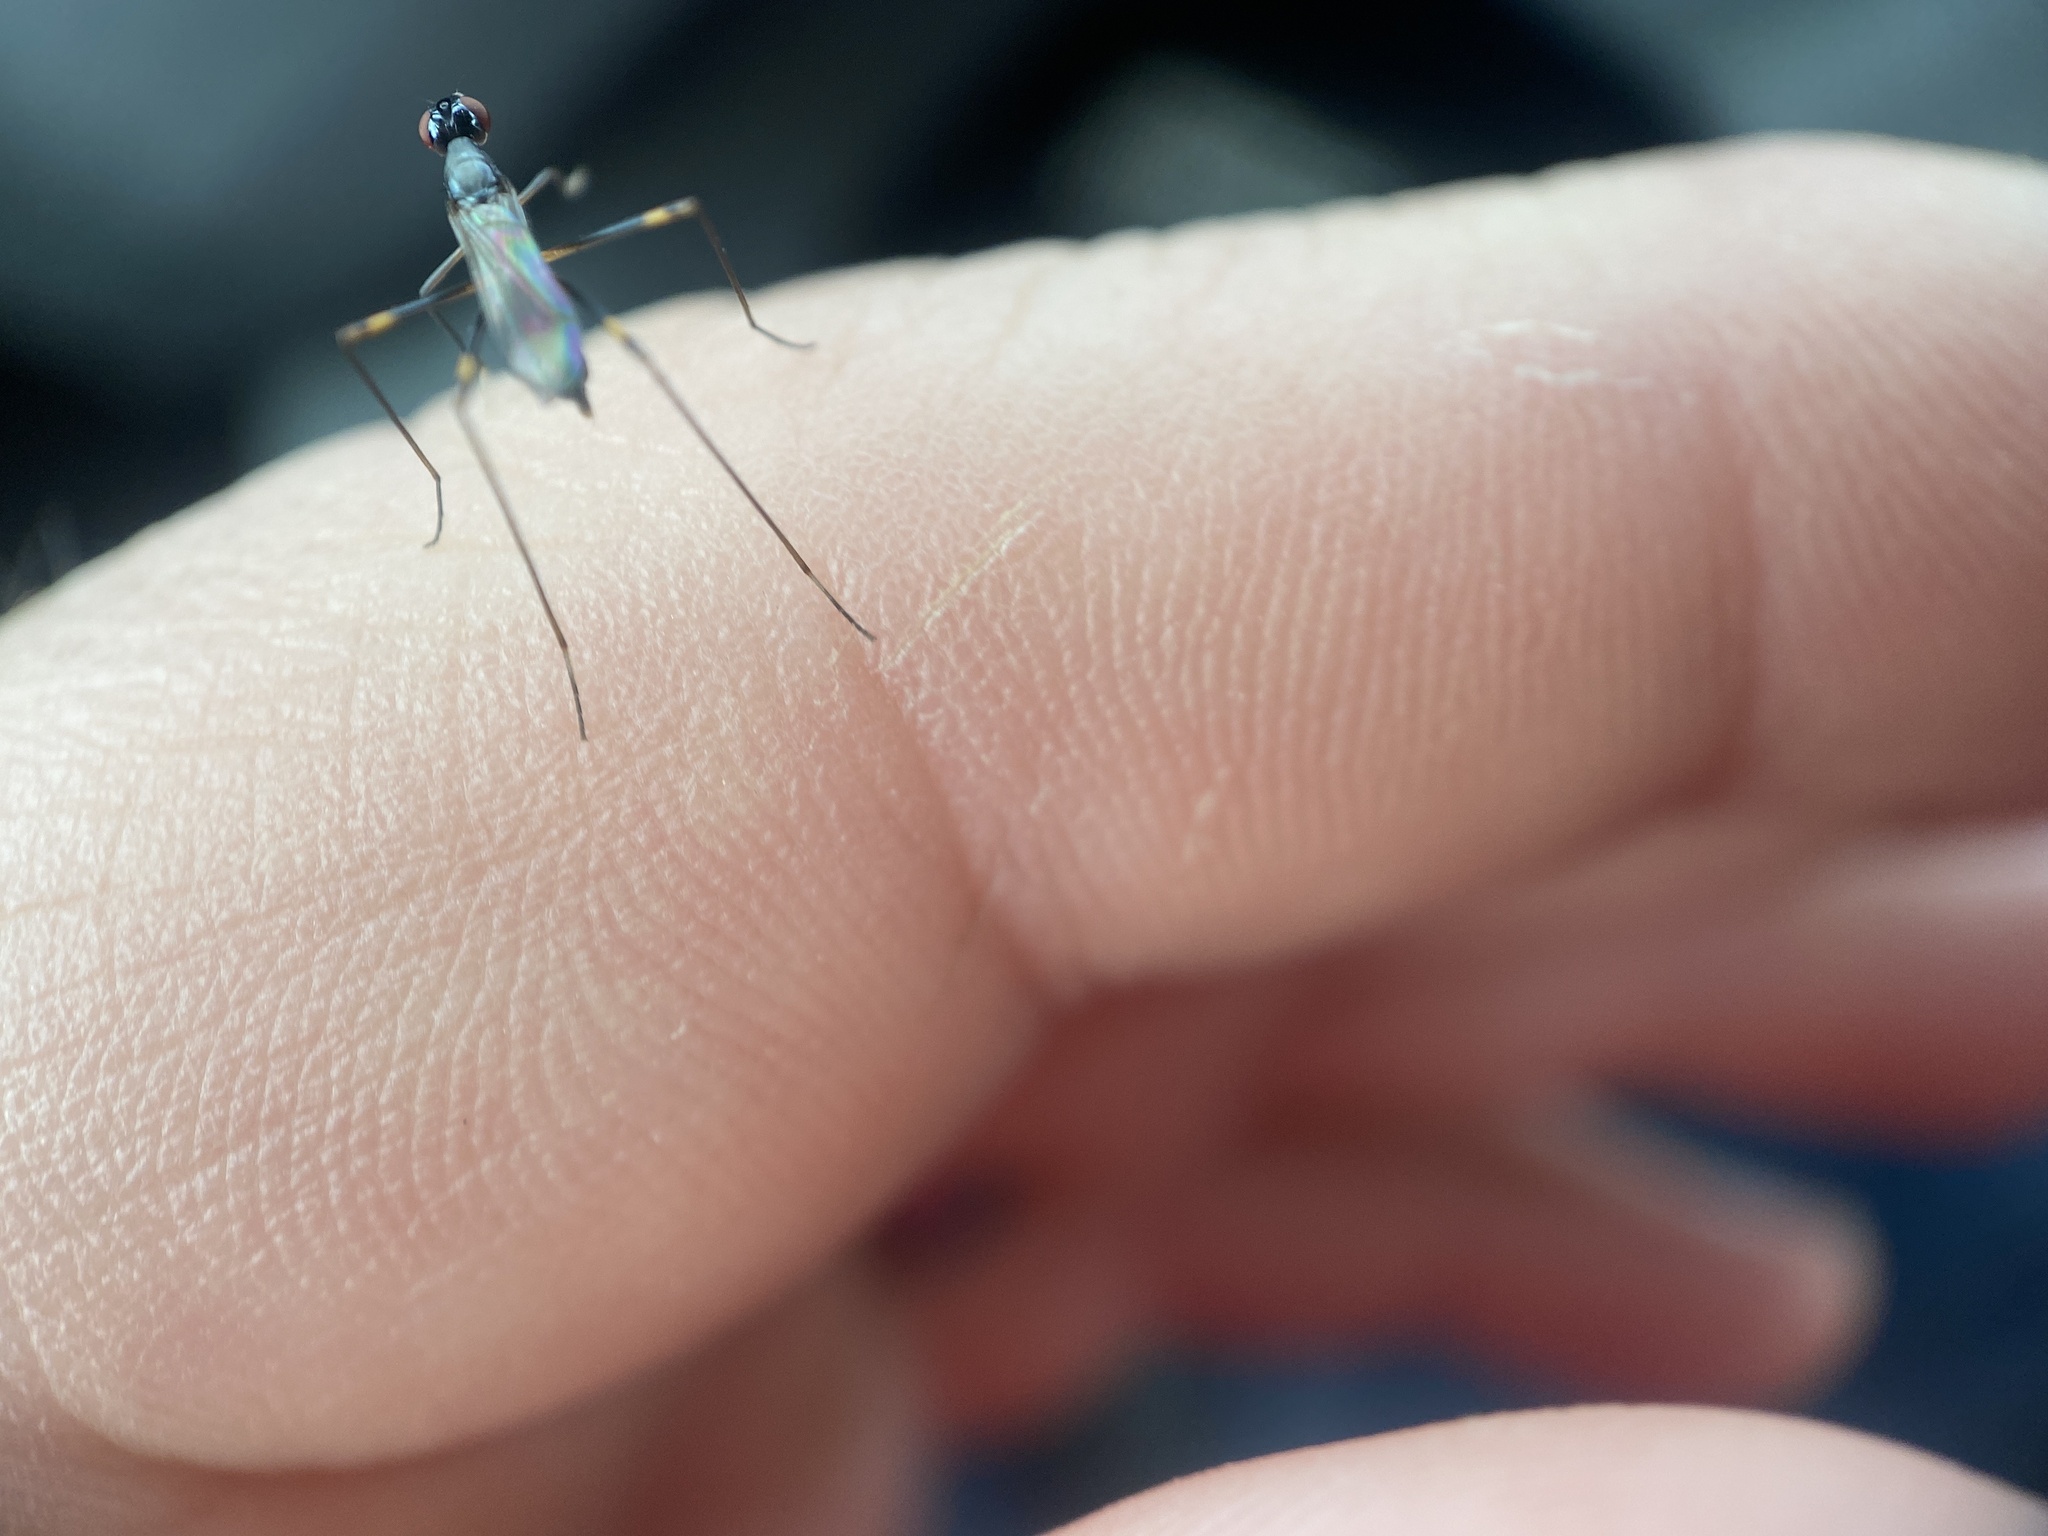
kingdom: Animalia
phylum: Arthropoda
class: Insecta
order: Diptera
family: Micropezidae
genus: Rainieria
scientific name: Rainieria antennaepes
